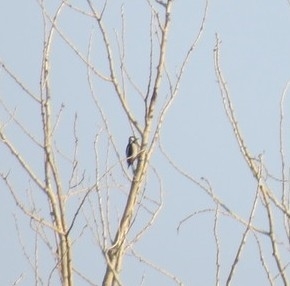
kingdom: Animalia
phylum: Chordata
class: Aves
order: Piciformes
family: Picidae
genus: Dendrocopos
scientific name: Dendrocopos major
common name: Great spotted woodpecker
